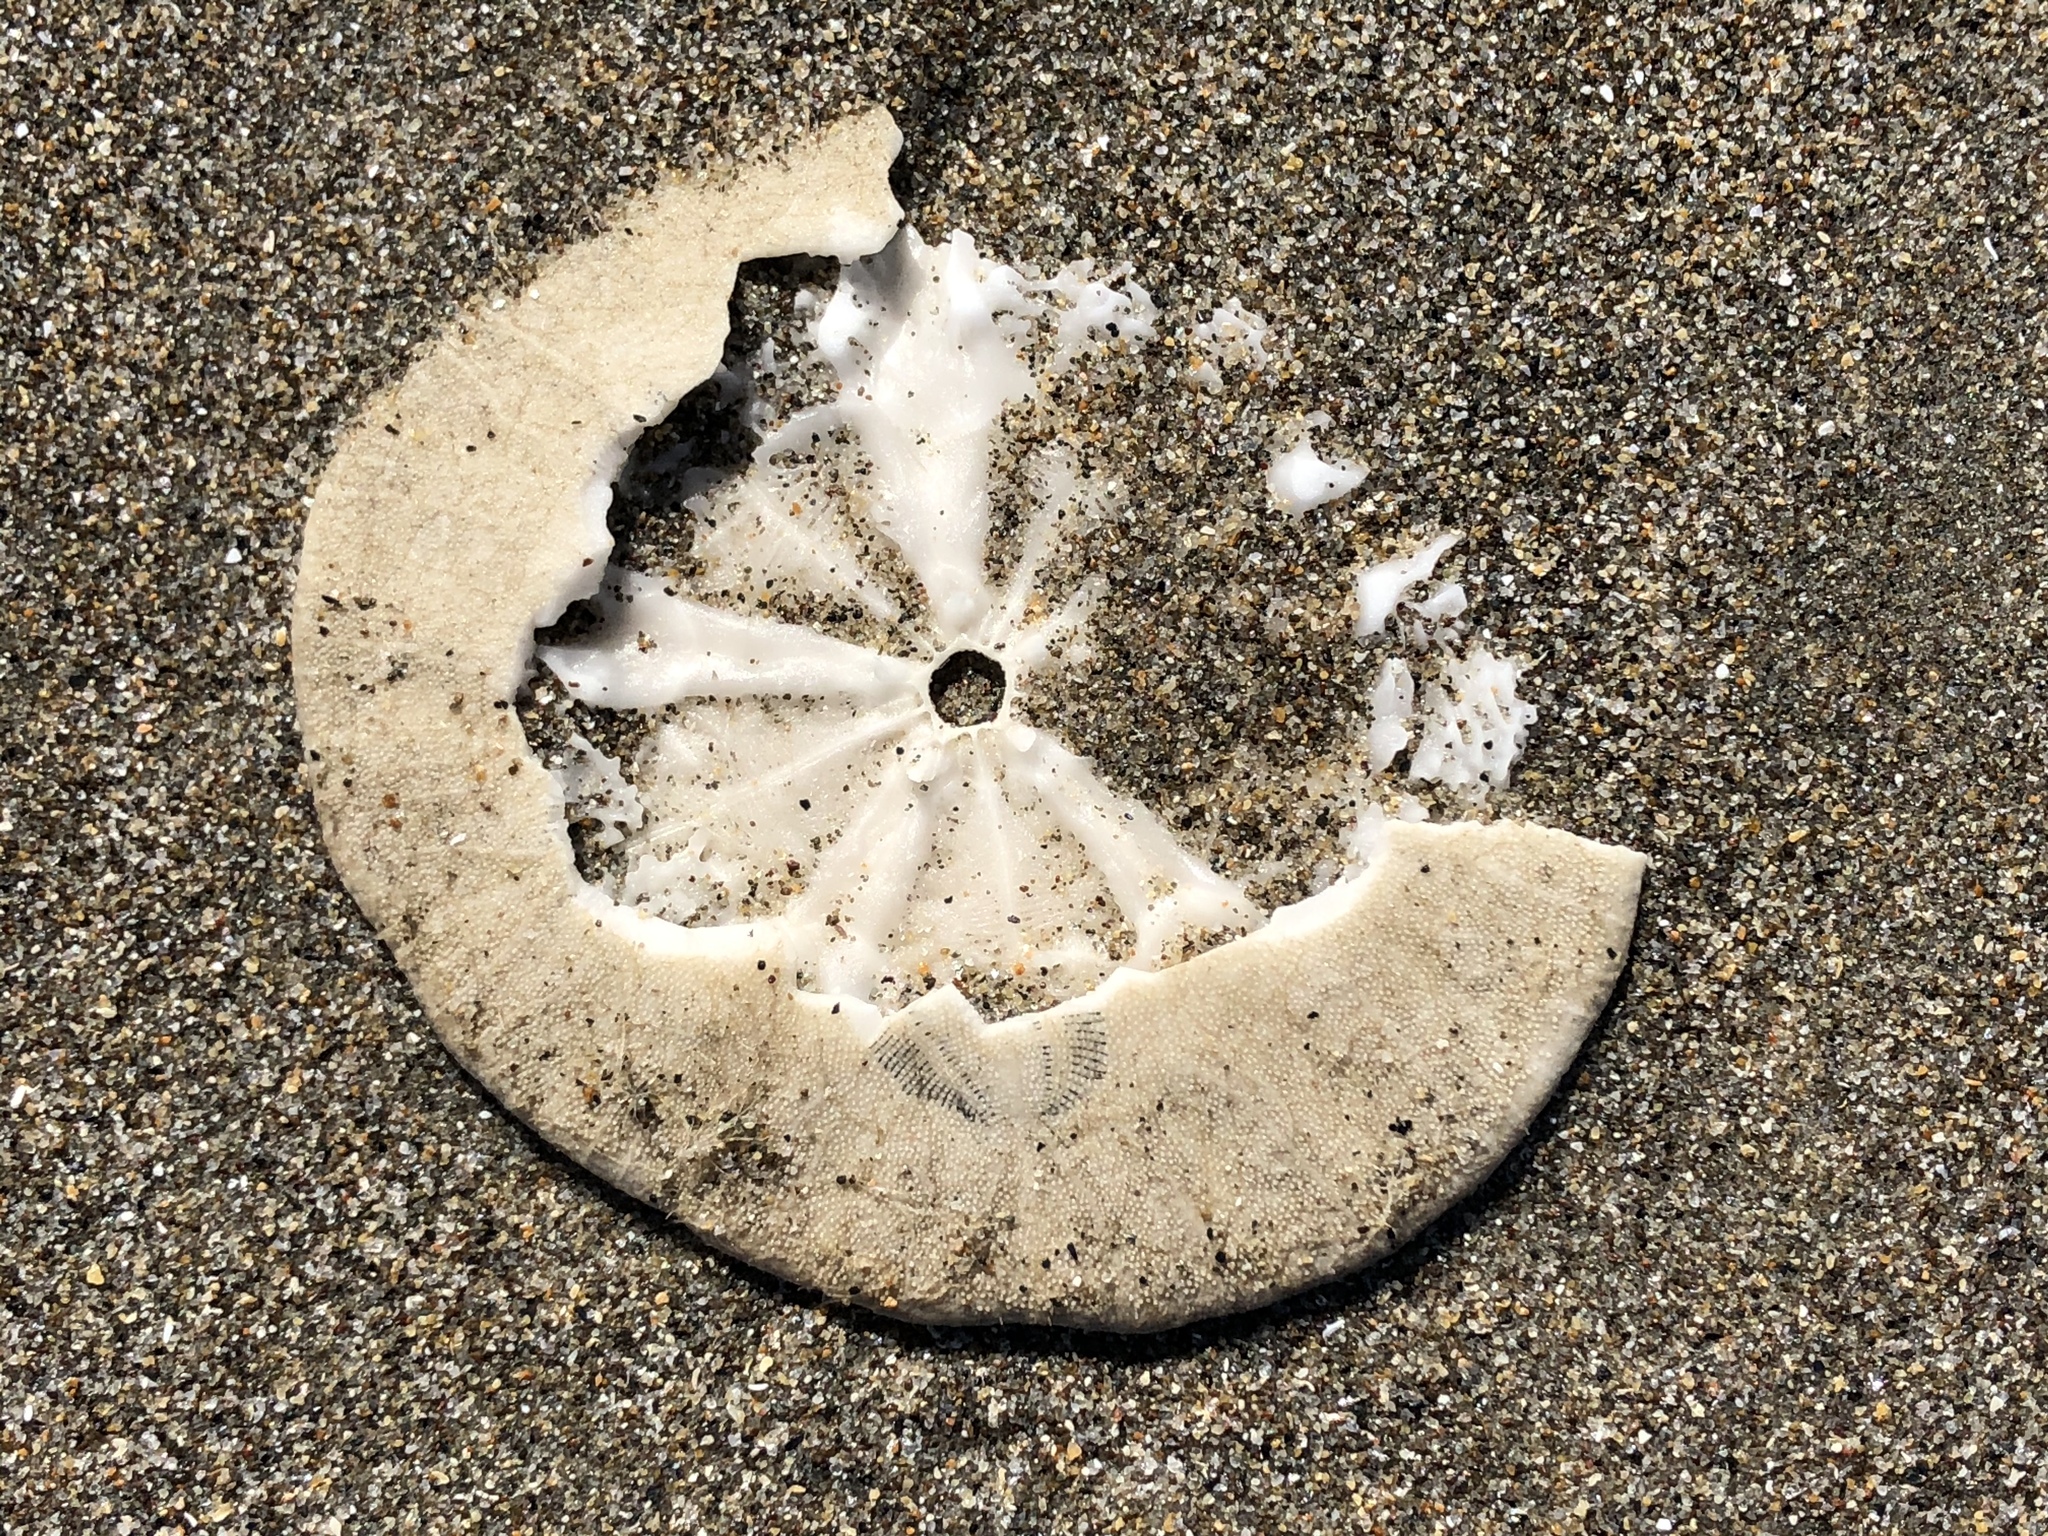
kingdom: Animalia
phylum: Echinodermata
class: Echinoidea
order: Echinolampadacea
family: Dendrasteridae
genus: Dendraster
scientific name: Dendraster excentricus
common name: Eccentric sand dollar sea urchin
